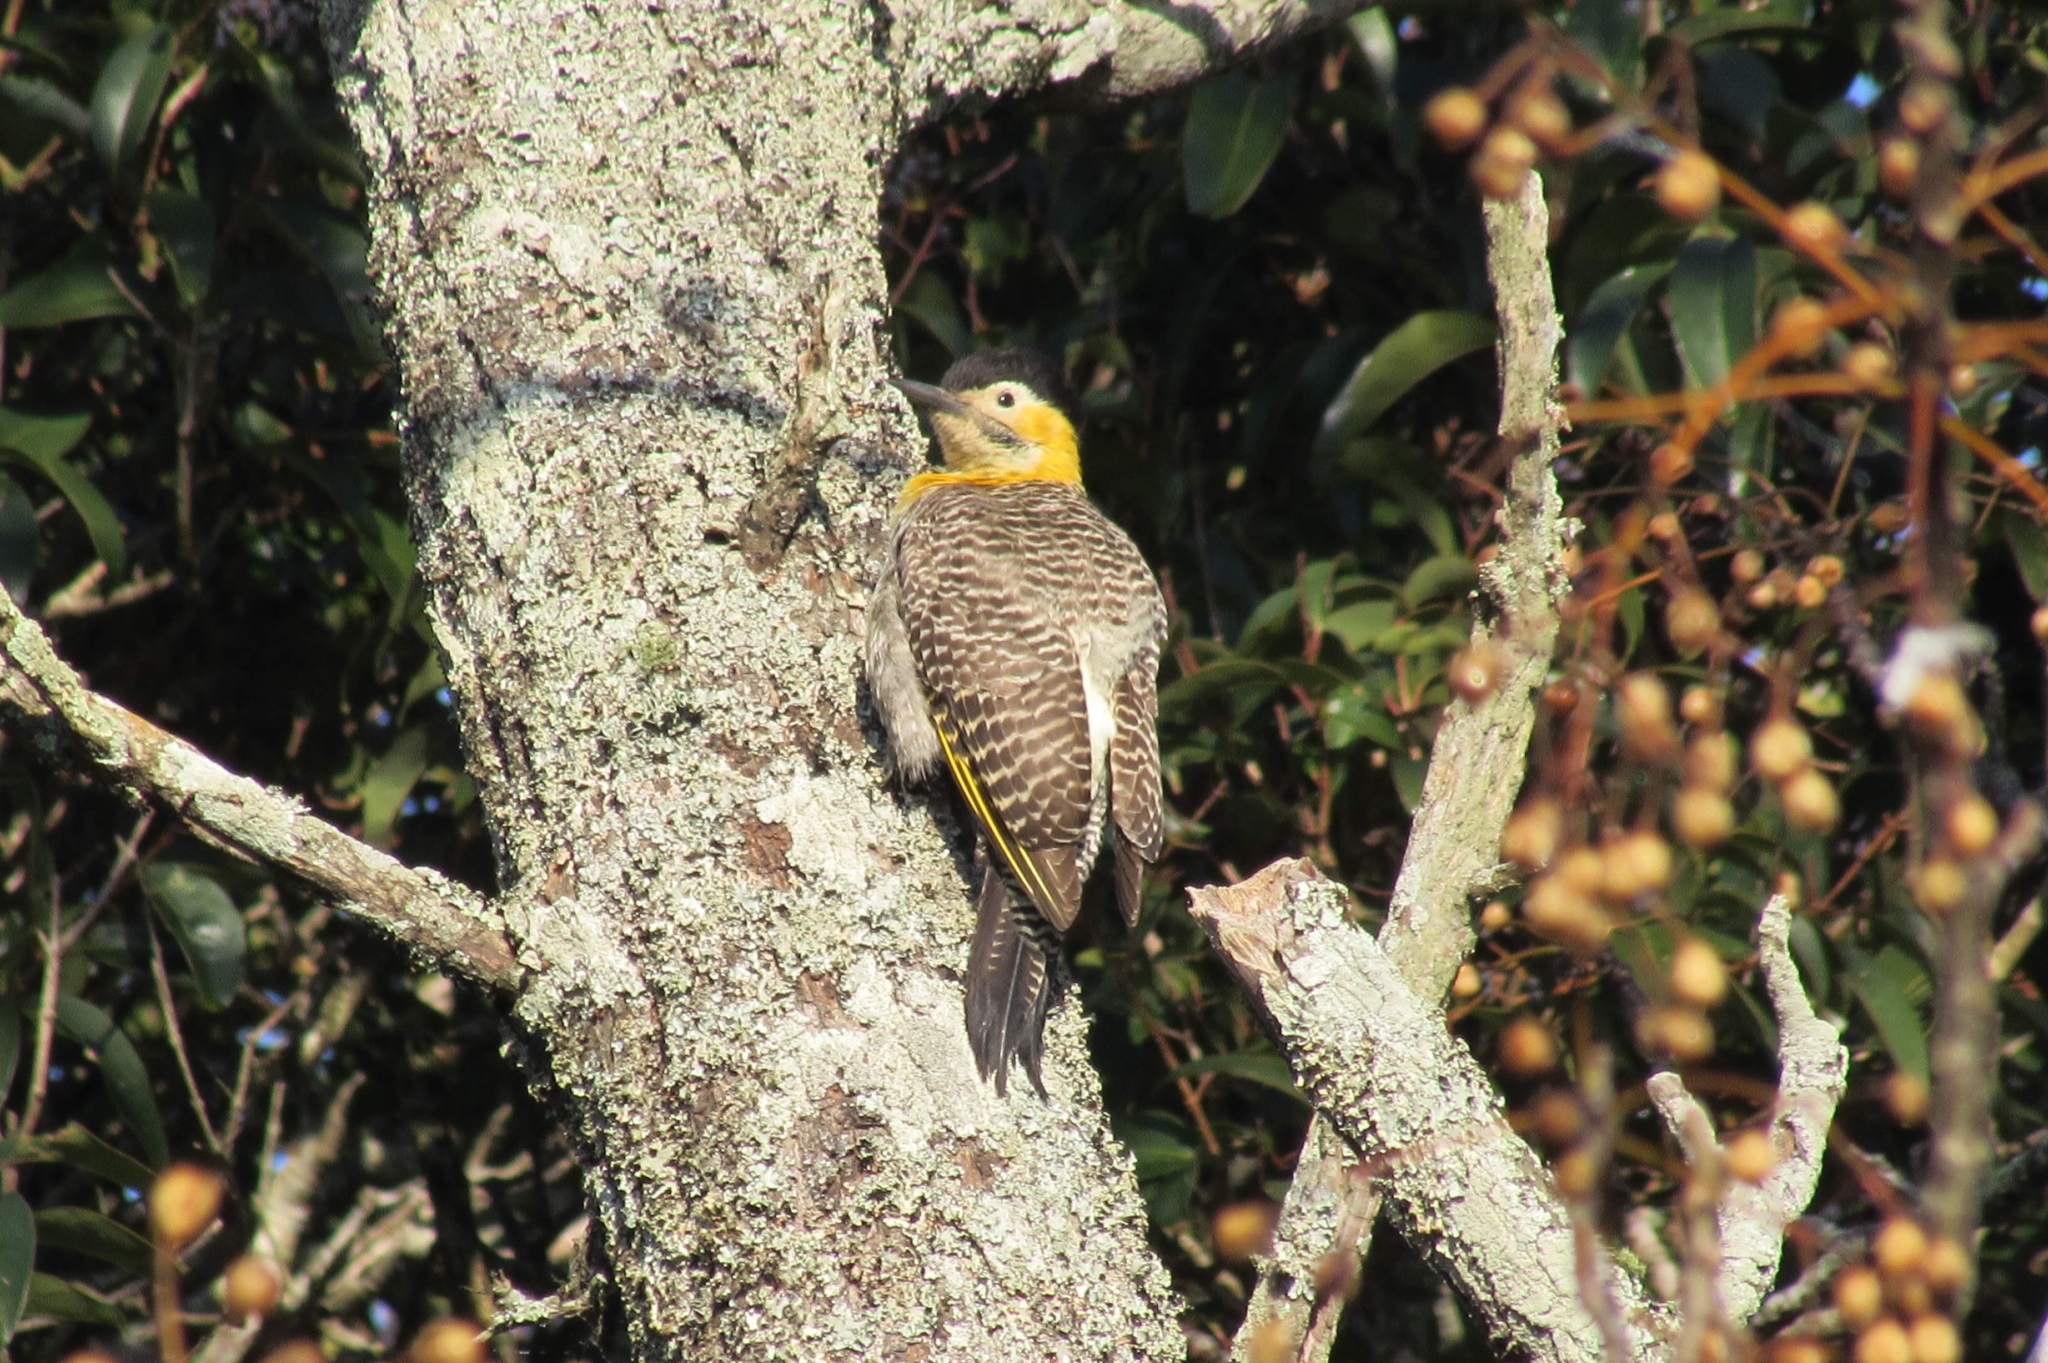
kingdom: Animalia
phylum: Chordata
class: Aves
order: Piciformes
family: Picidae
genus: Colaptes
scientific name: Colaptes campestris
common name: Campo flicker
